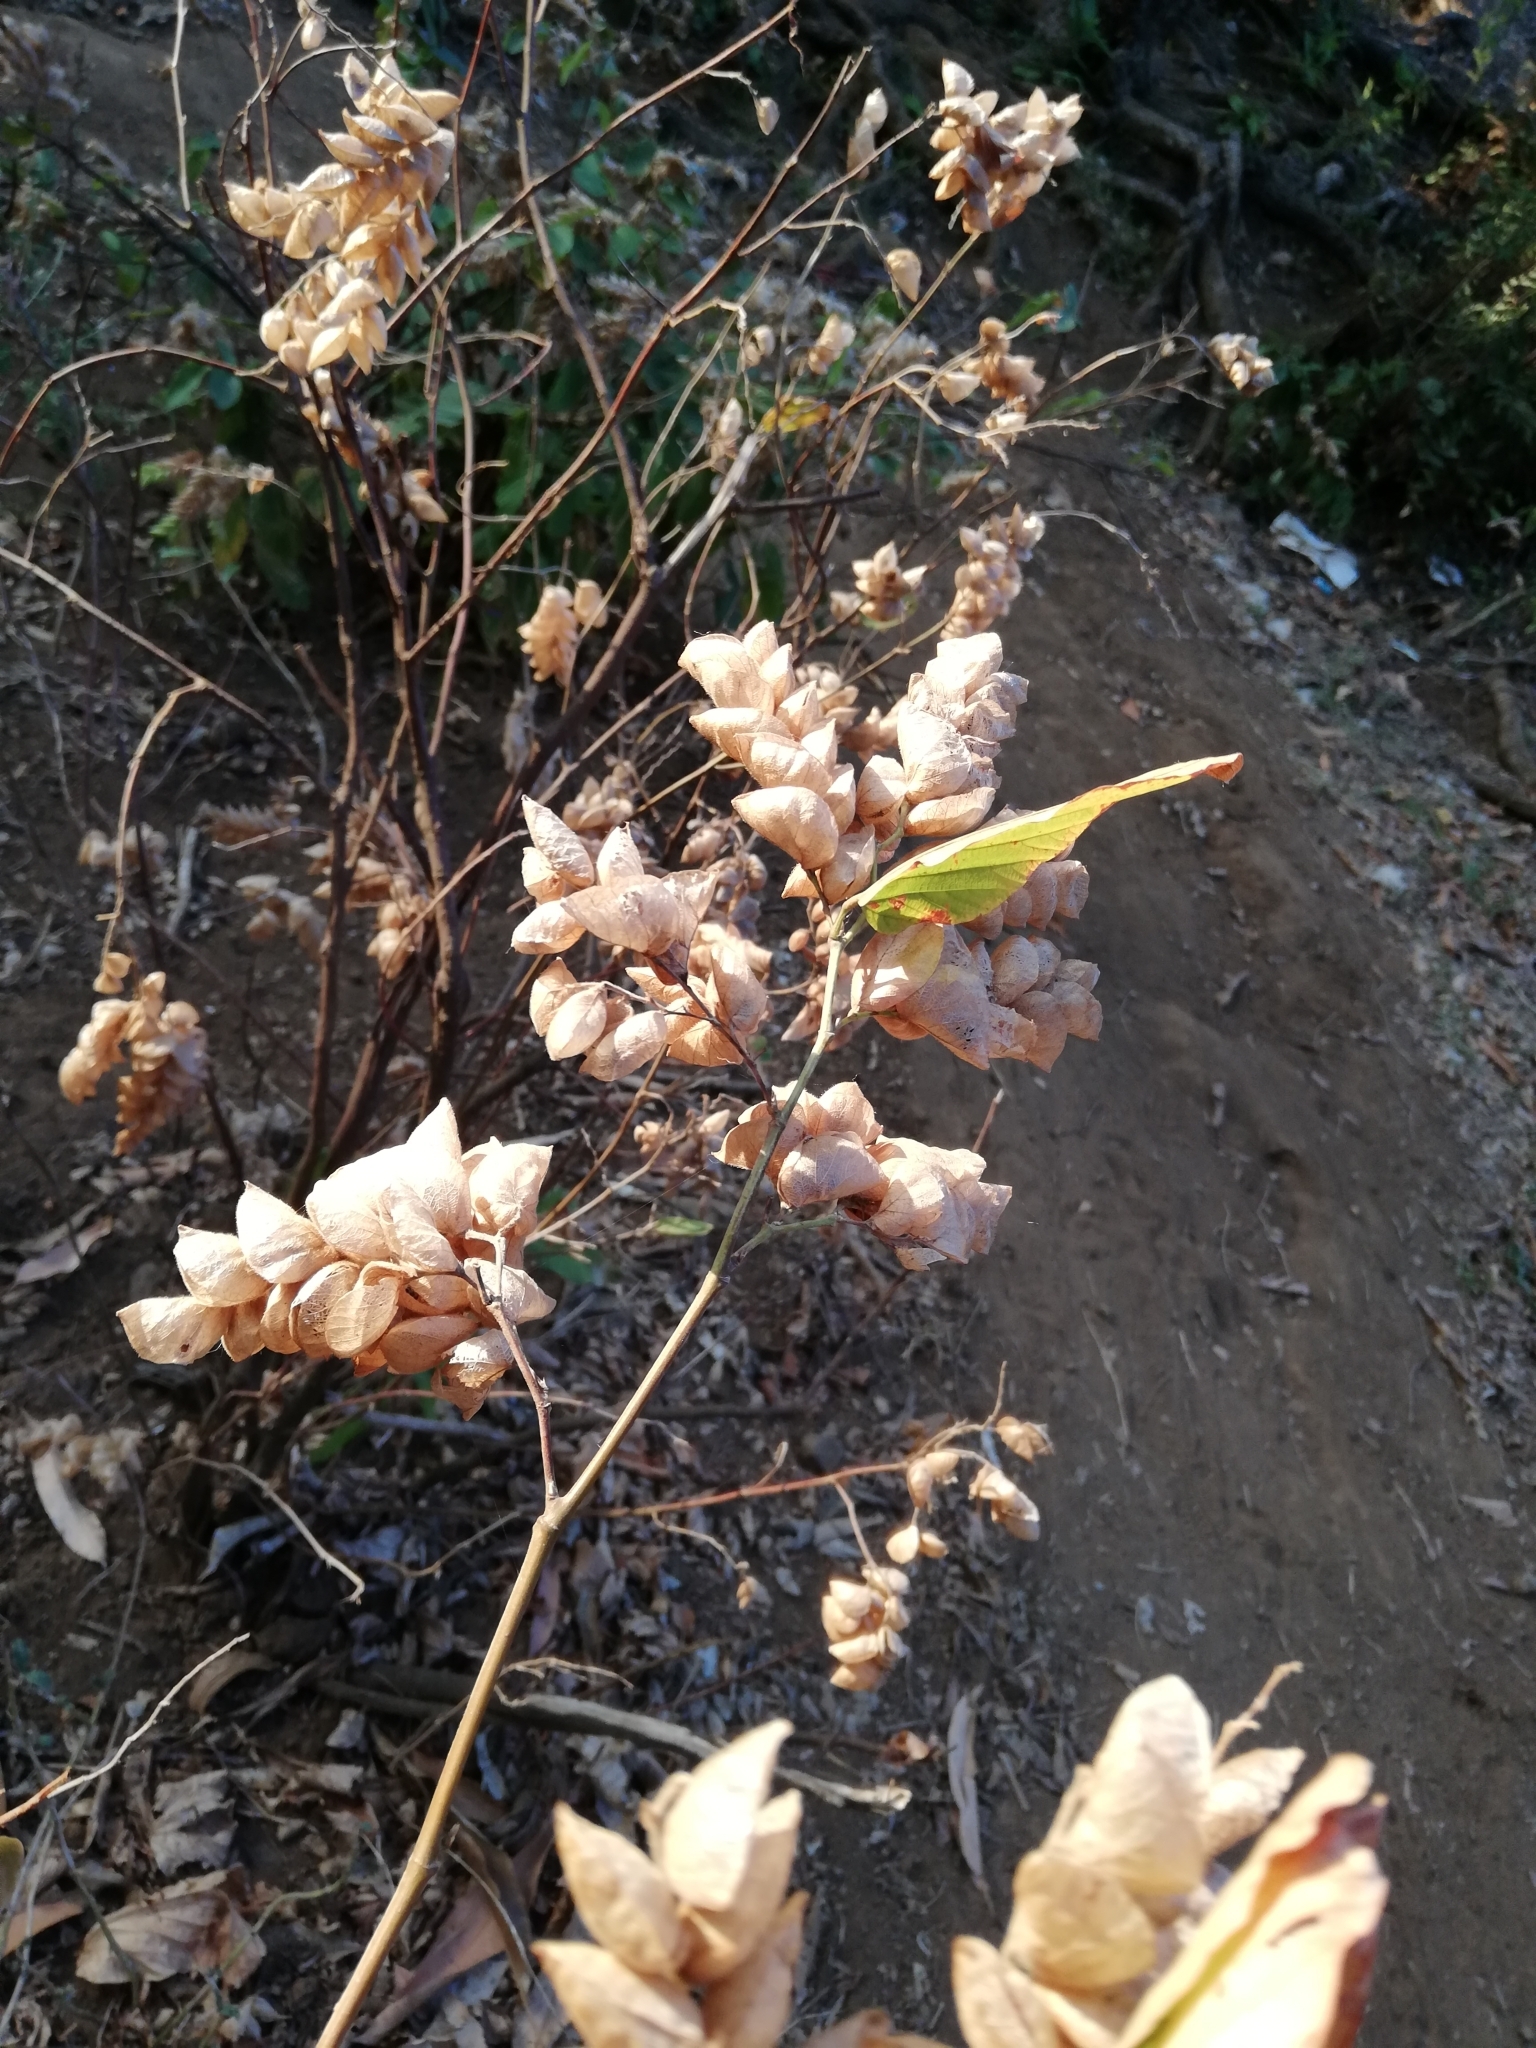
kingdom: Plantae
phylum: Tracheophyta
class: Magnoliopsida
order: Fabales
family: Fabaceae
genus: Flemingia
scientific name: Flemingia strobilifera
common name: Wild hops
